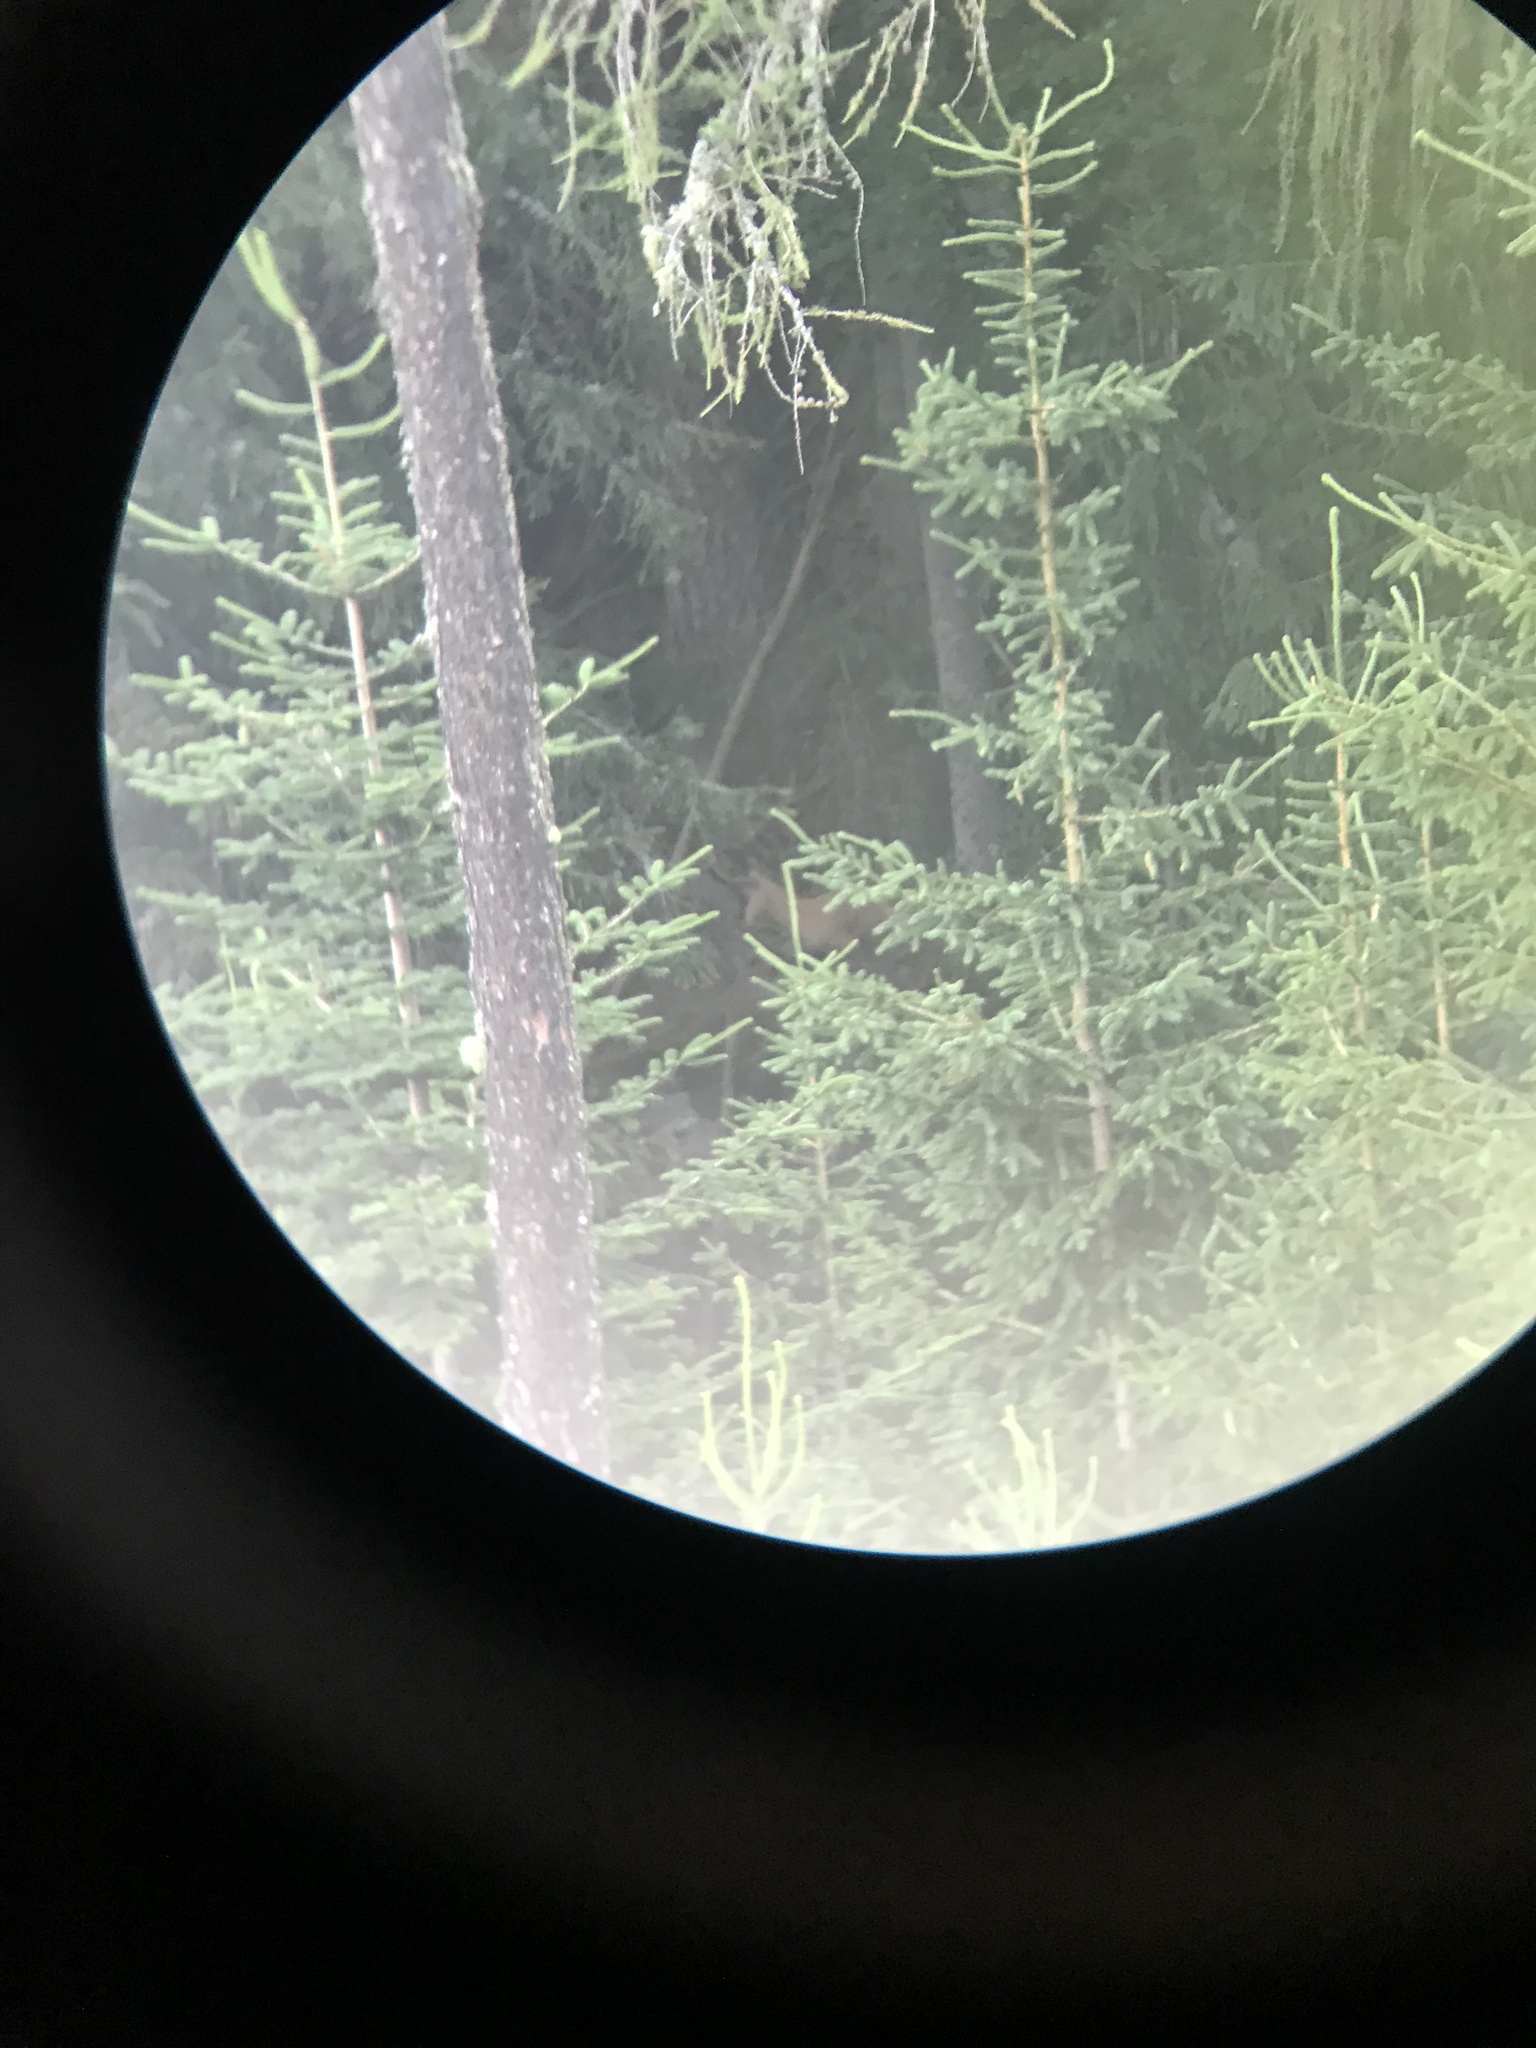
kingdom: Animalia
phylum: Chordata
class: Mammalia
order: Artiodactyla
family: Bovidae
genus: Rupicapra
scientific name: Rupicapra rupicapra
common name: Chamois
